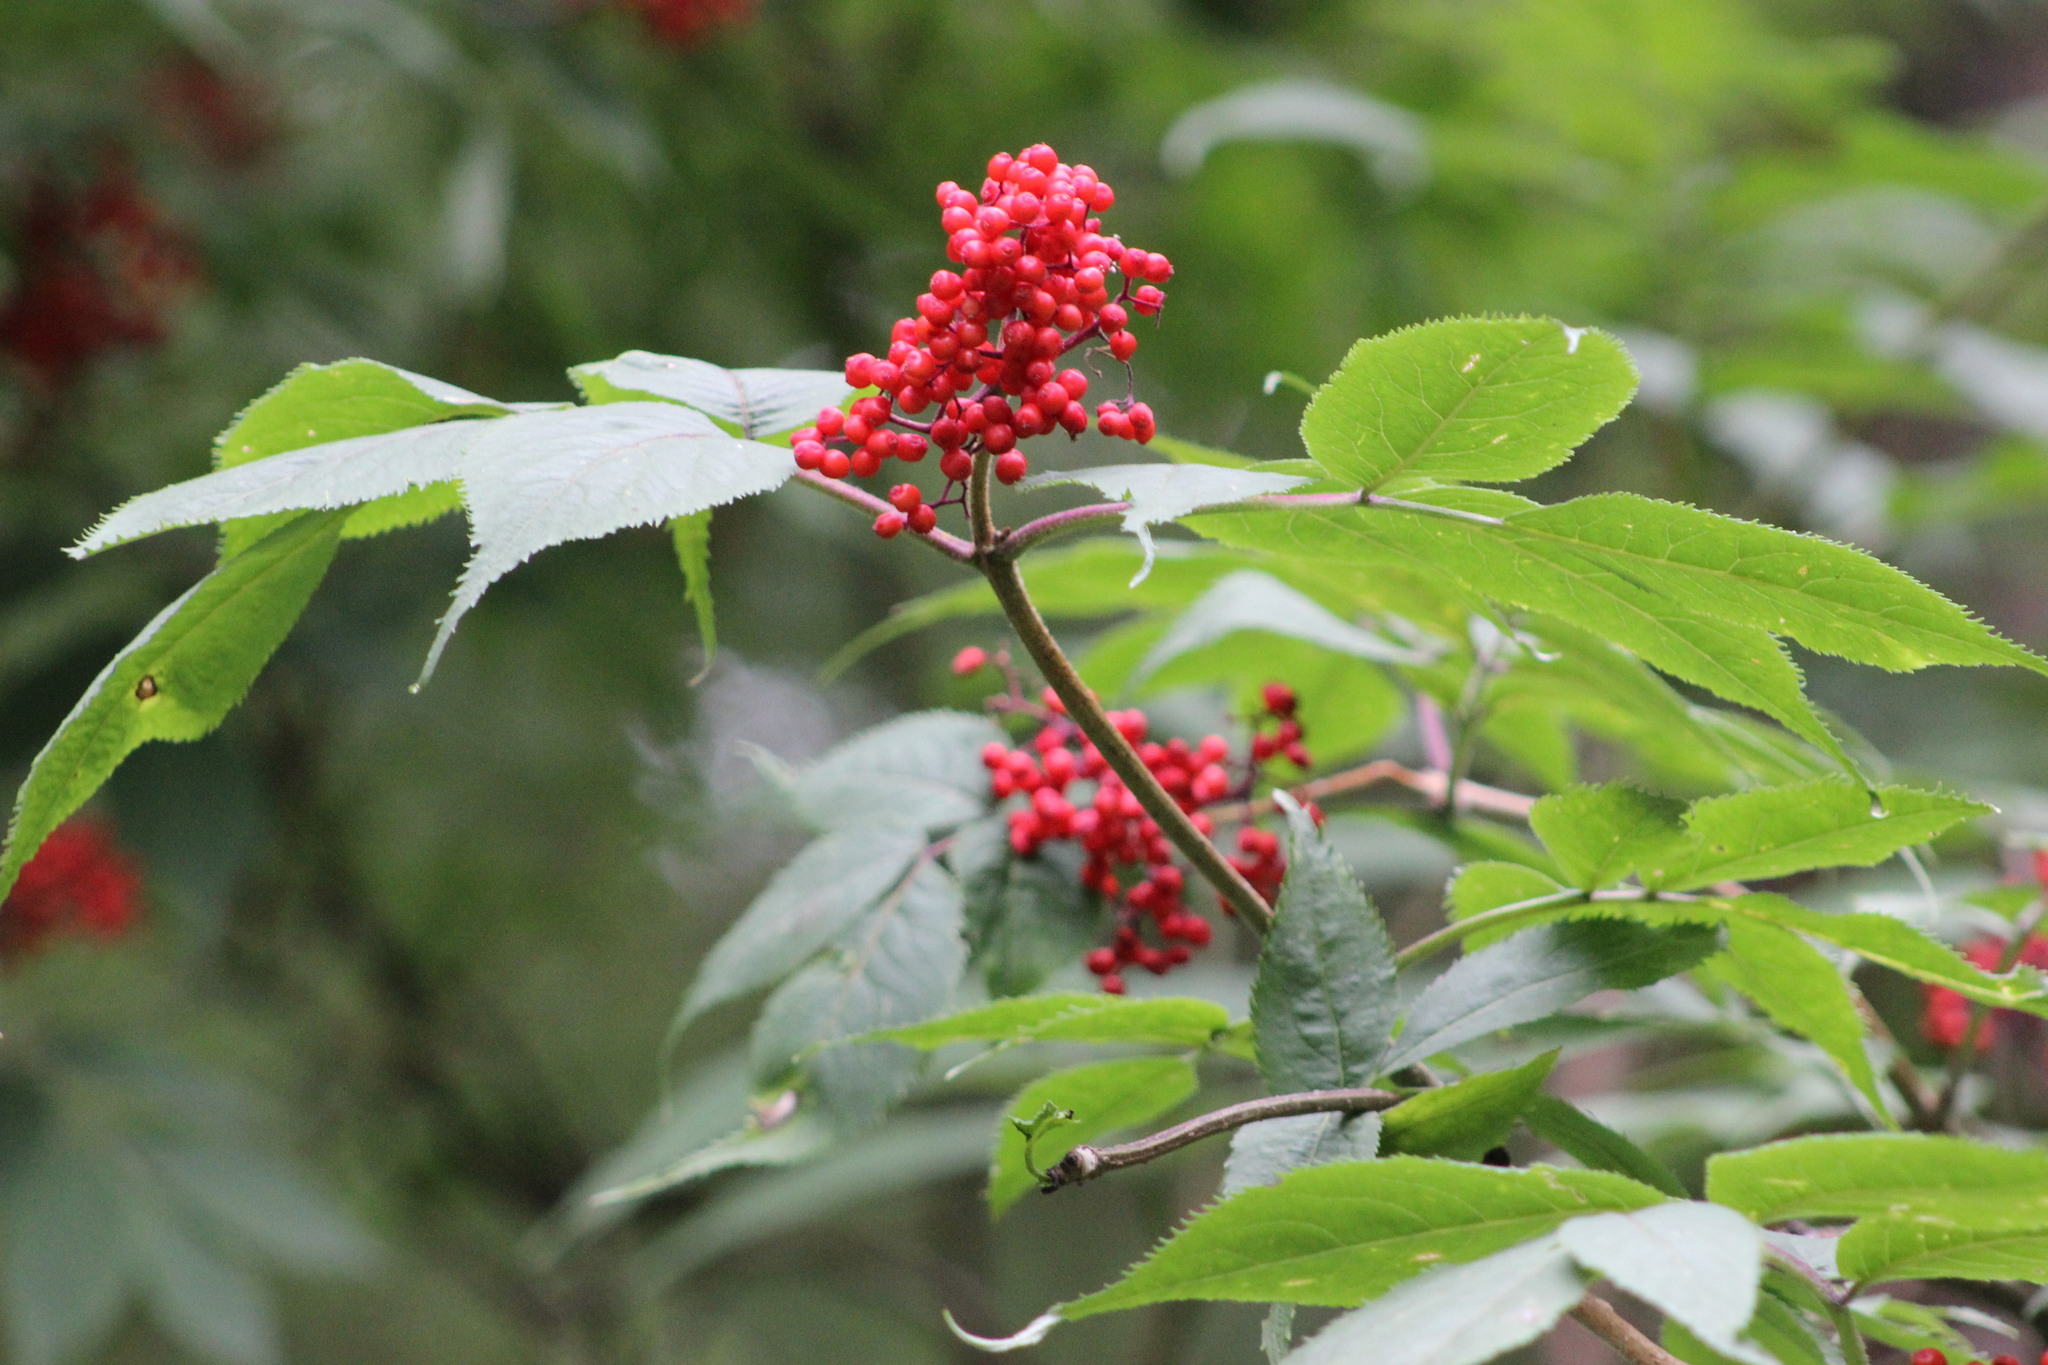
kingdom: Plantae
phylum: Tracheophyta
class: Magnoliopsida
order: Dipsacales
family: Viburnaceae
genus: Sambucus
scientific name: Sambucus racemosa
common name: Red-berried elder
